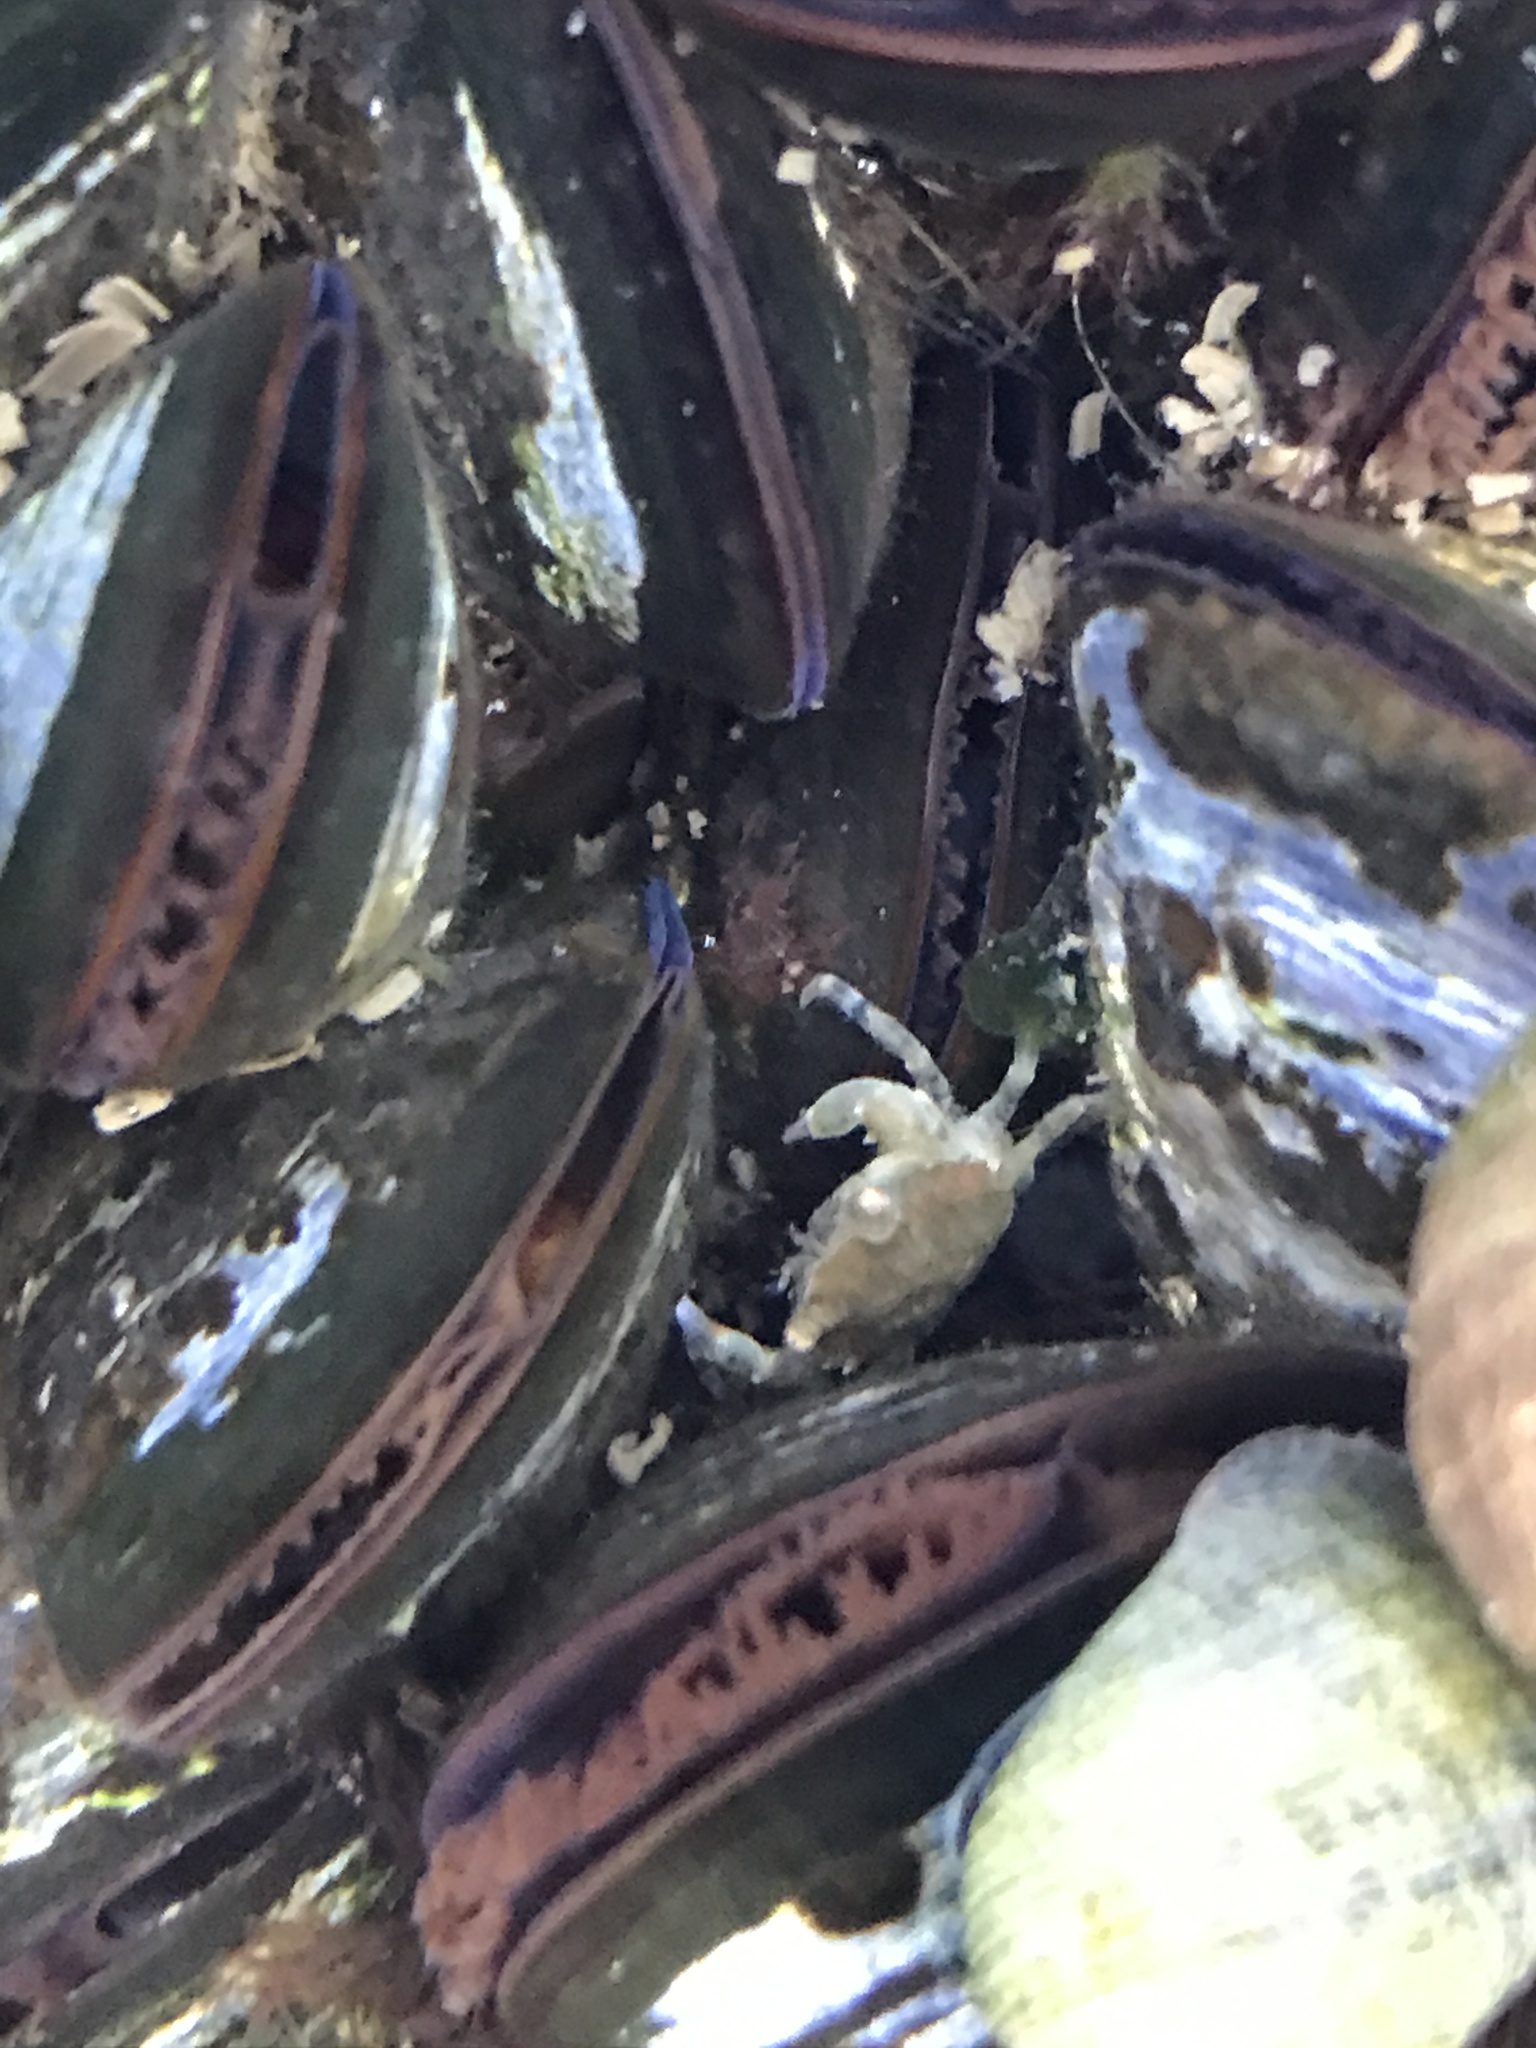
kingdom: Animalia
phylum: Arthropoda
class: Malacostraca
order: Decapoda
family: Carcinidae
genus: Carcinus
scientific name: Carcinus maenas
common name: European green crab
